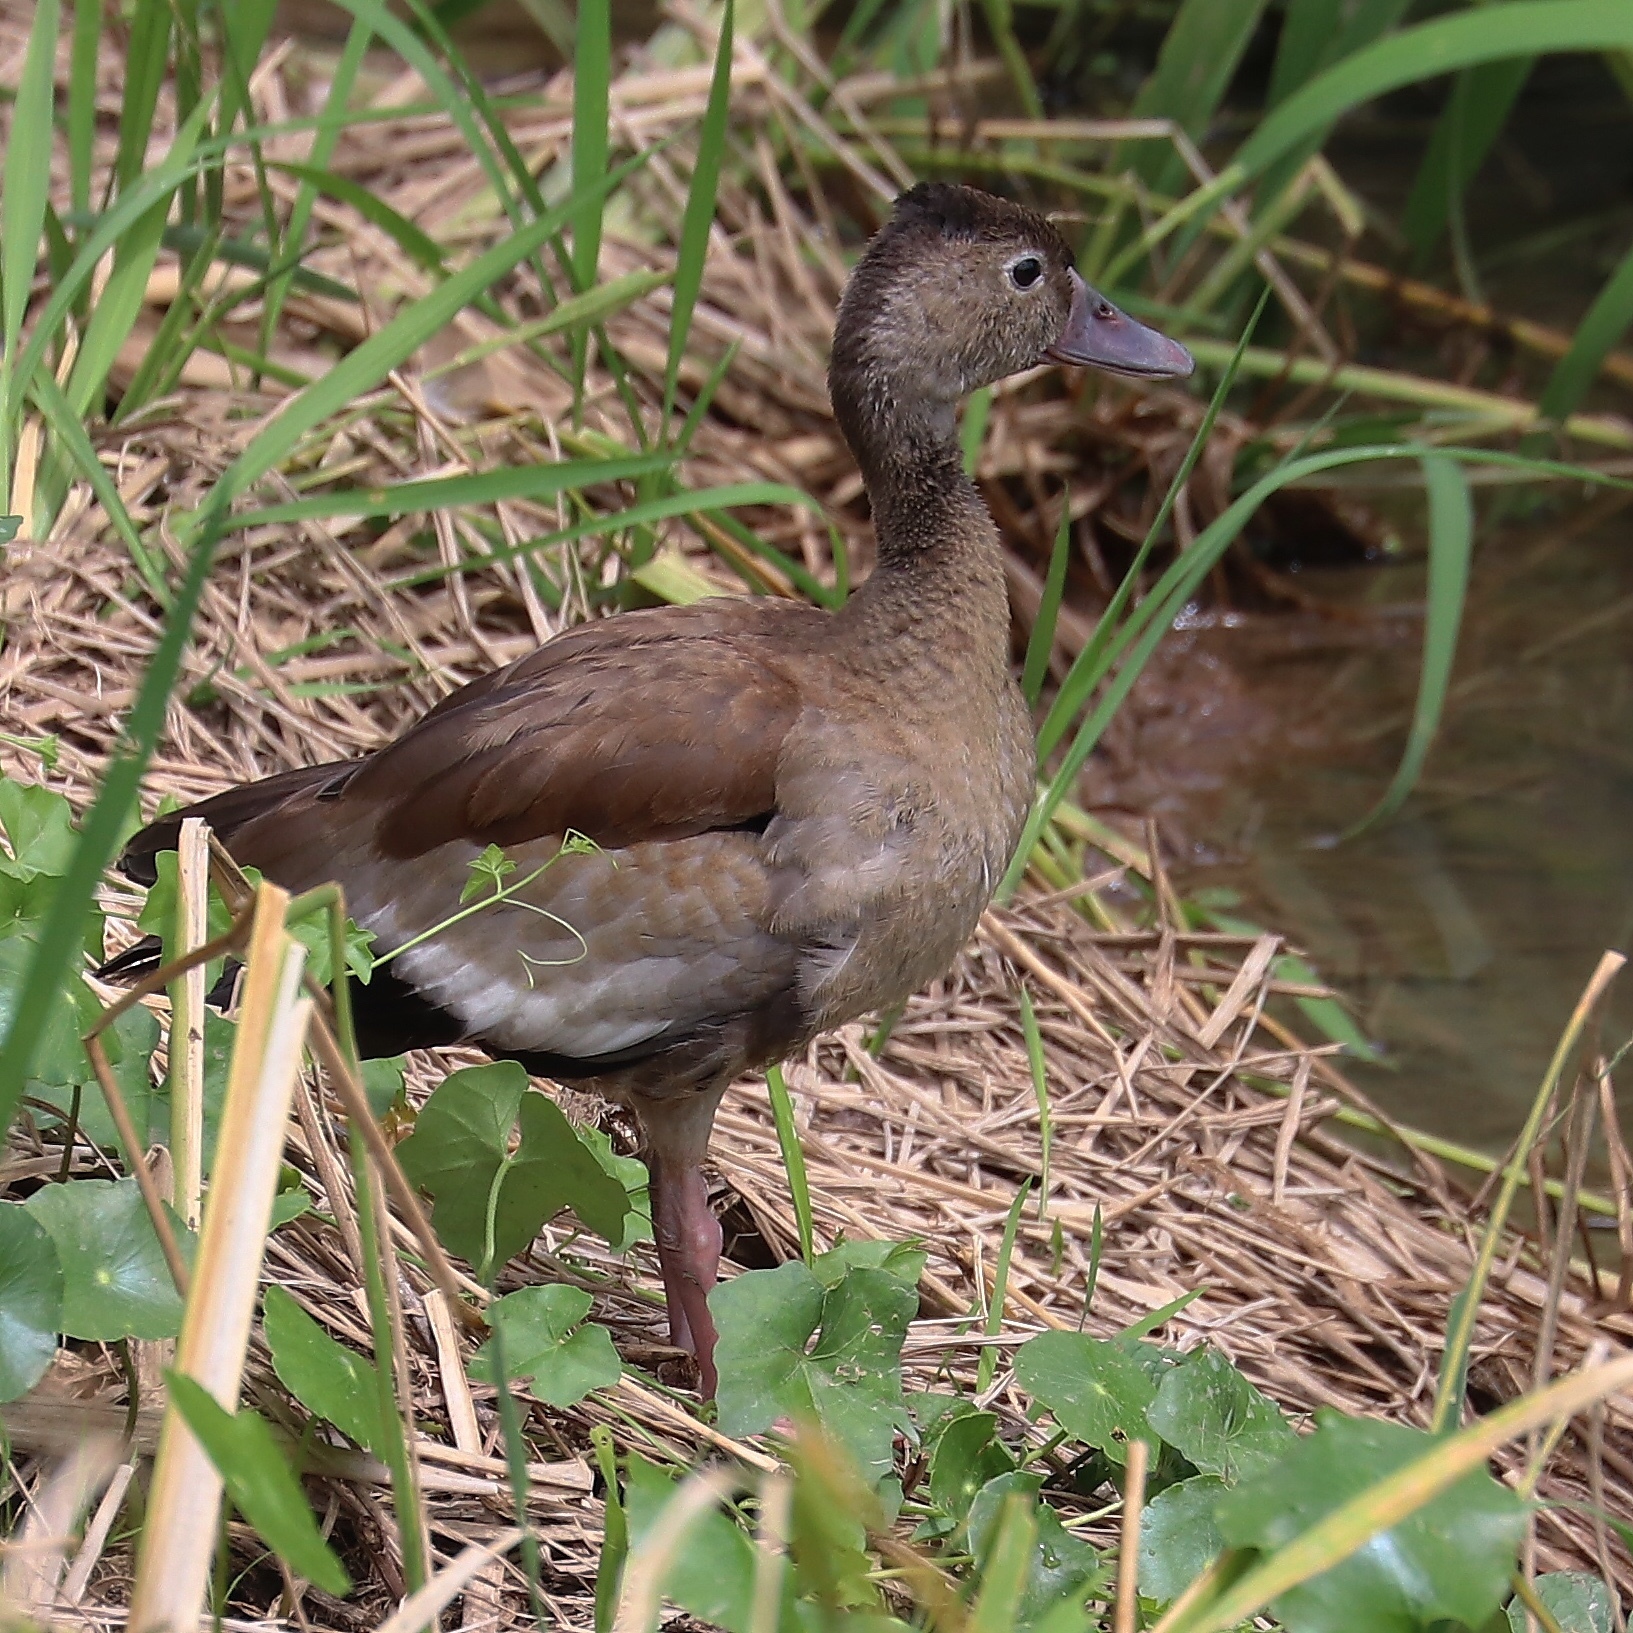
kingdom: Animalia
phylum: Chordata
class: Aves
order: Anseriformes
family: Anatidae
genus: Dendrocygna
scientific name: Dendrocygna autumnalis
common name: Black-bellied whistling duck
